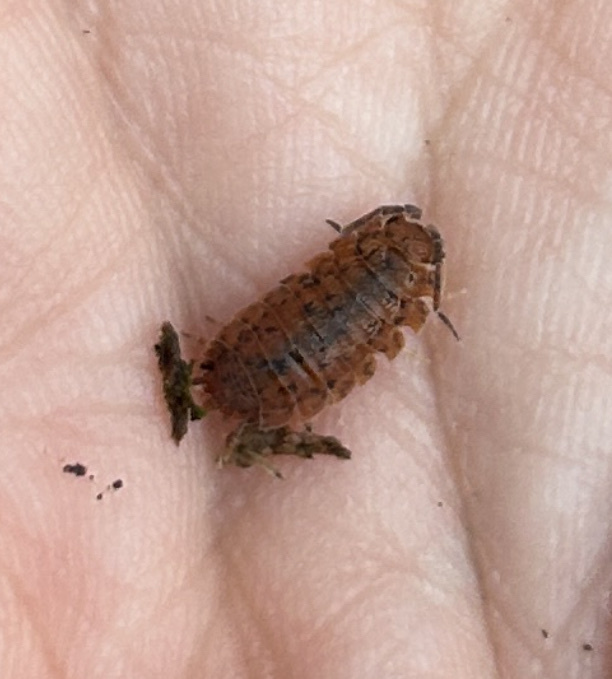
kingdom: Animalia
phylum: Arthropoda
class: Malacostraca
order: Isopoda
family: Porcellionidae
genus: Porcellio
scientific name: Porcellio scaber
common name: Common rough woodlouse
